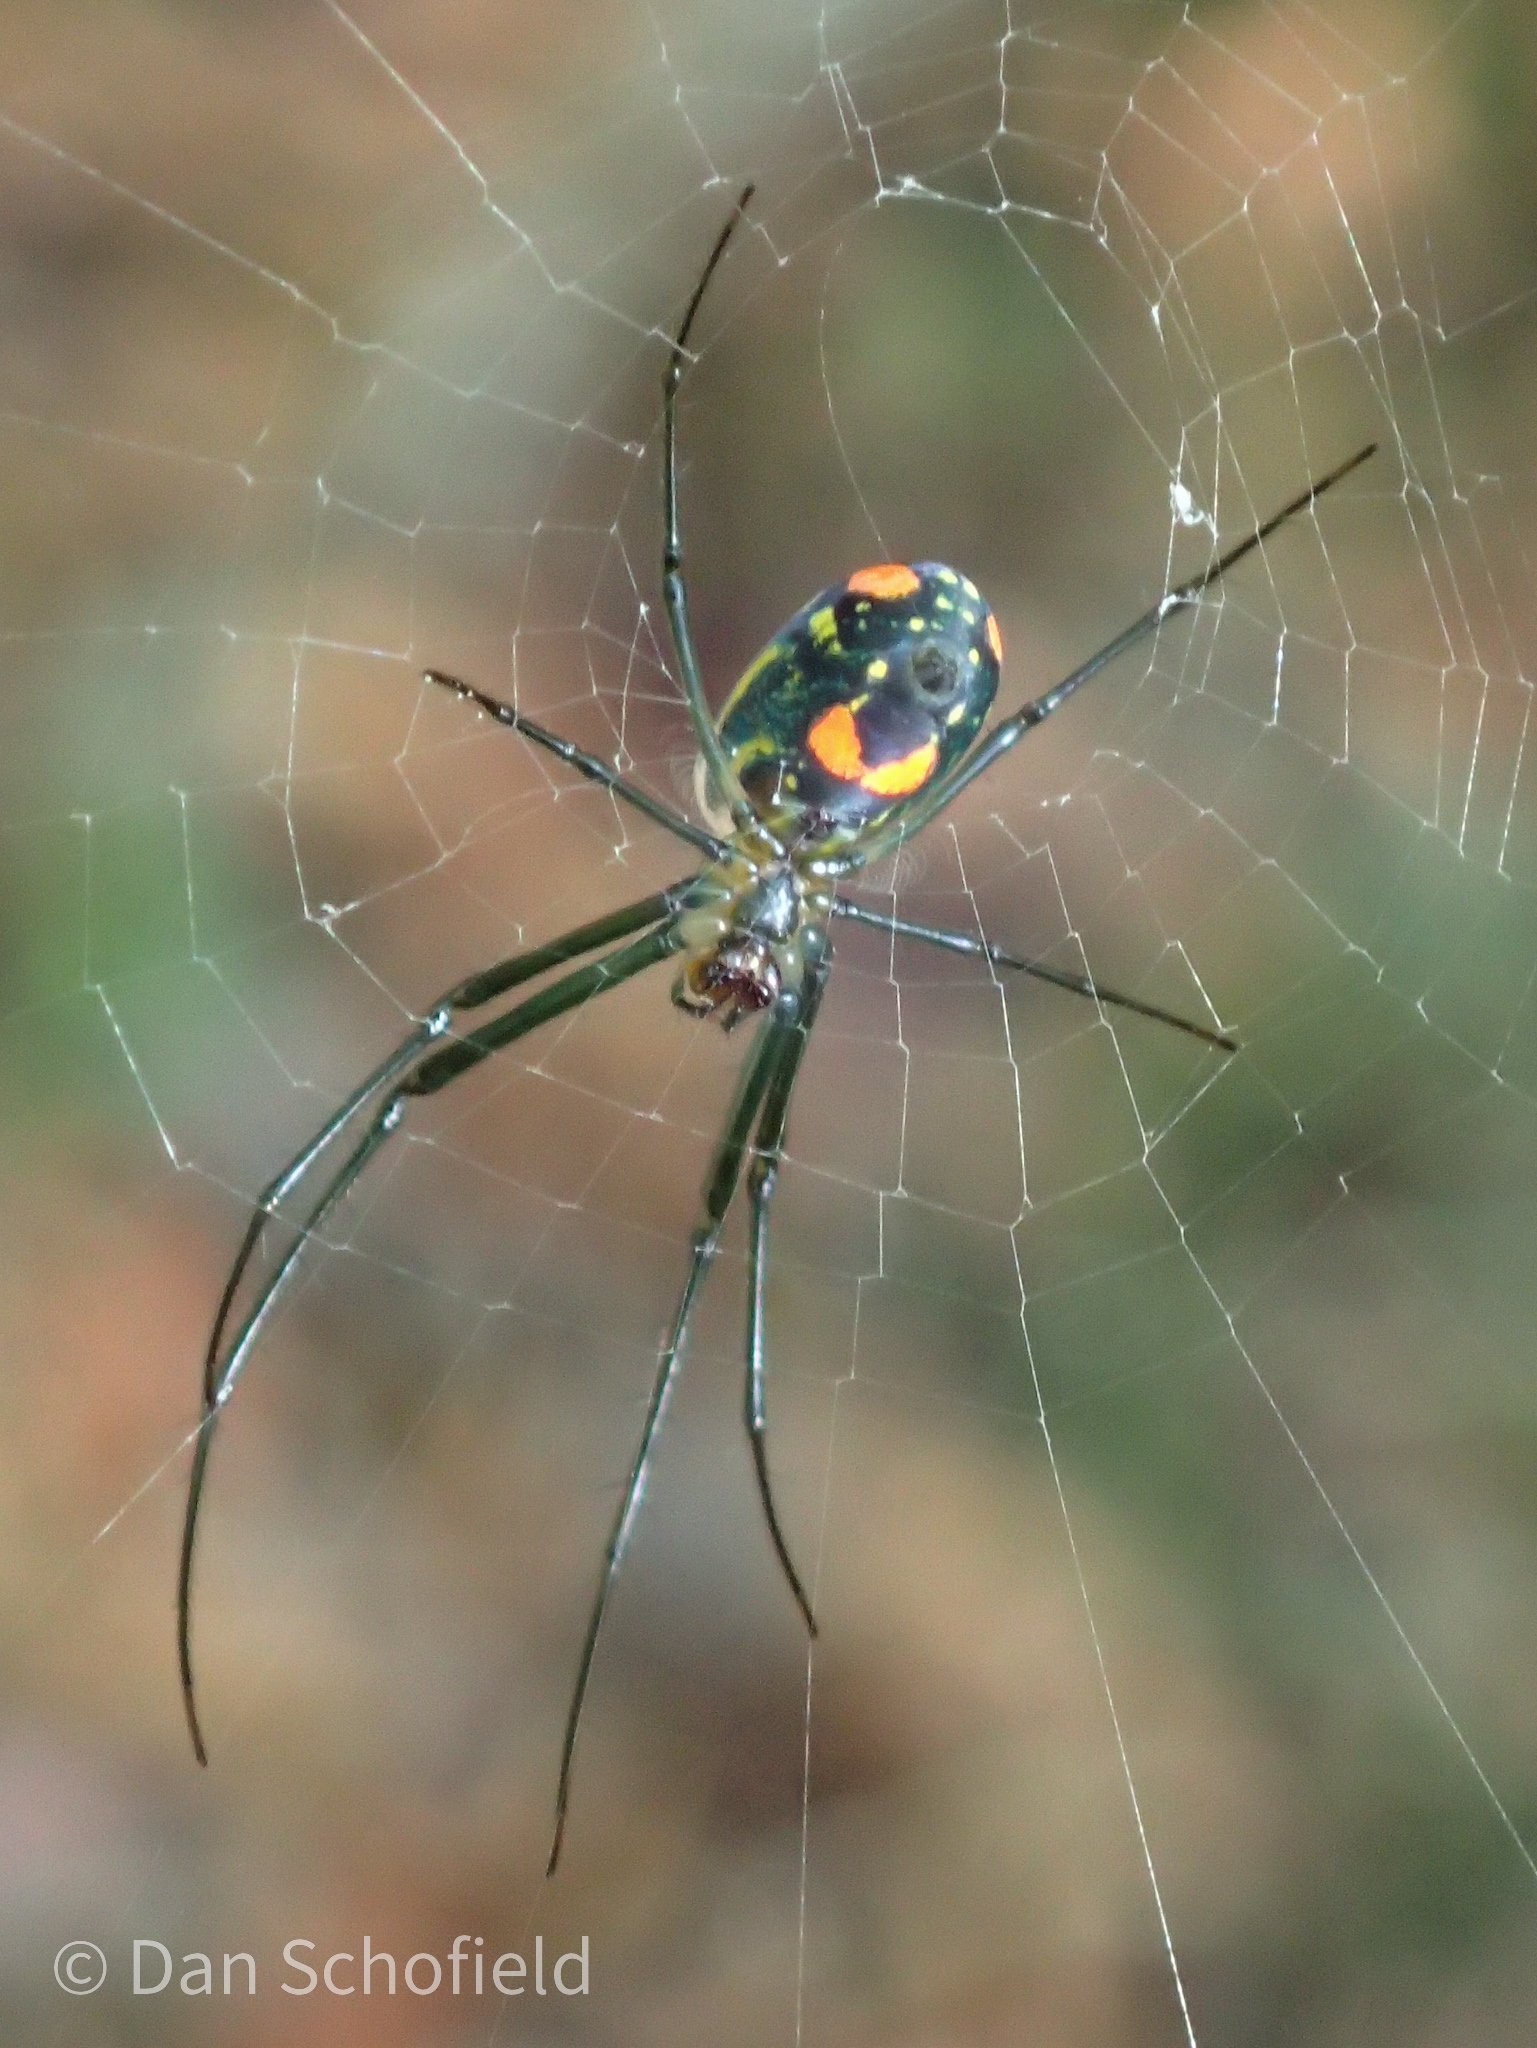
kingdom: Animalia
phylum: Arthropoda
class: Arachnida
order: Araneae
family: Tetragnathidae
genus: Leucauge
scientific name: Leucauge argyrobapta
